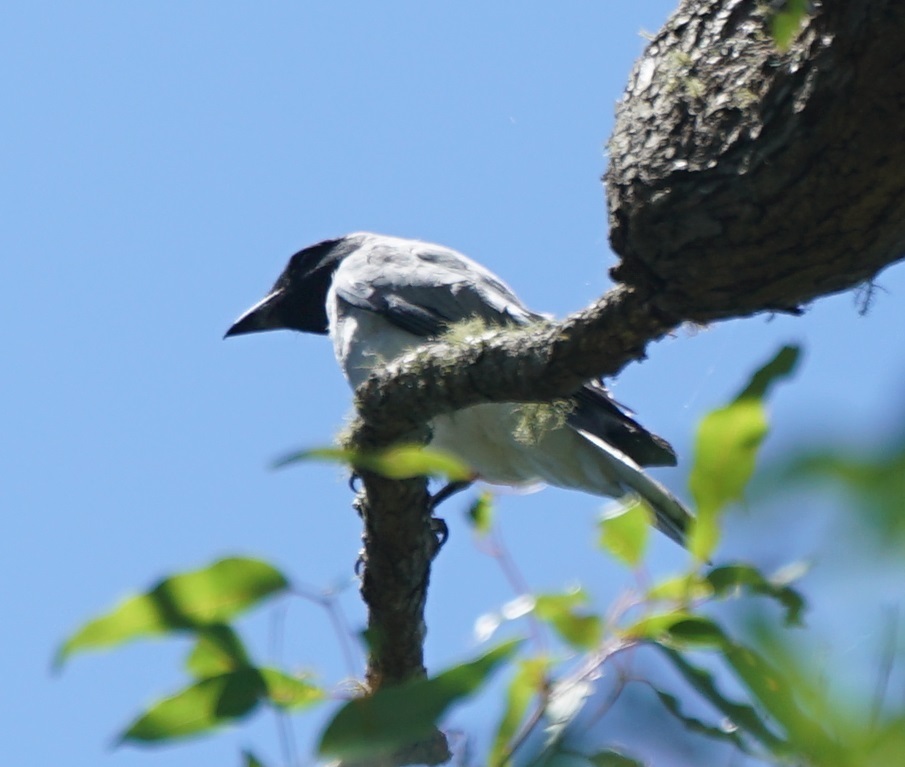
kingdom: Animalia
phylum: Chordata
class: Aves
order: Passeriformes
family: Campephagidae
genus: Coracina
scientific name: Coracina novaehollandiae
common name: Black-faced cuckooshrike
